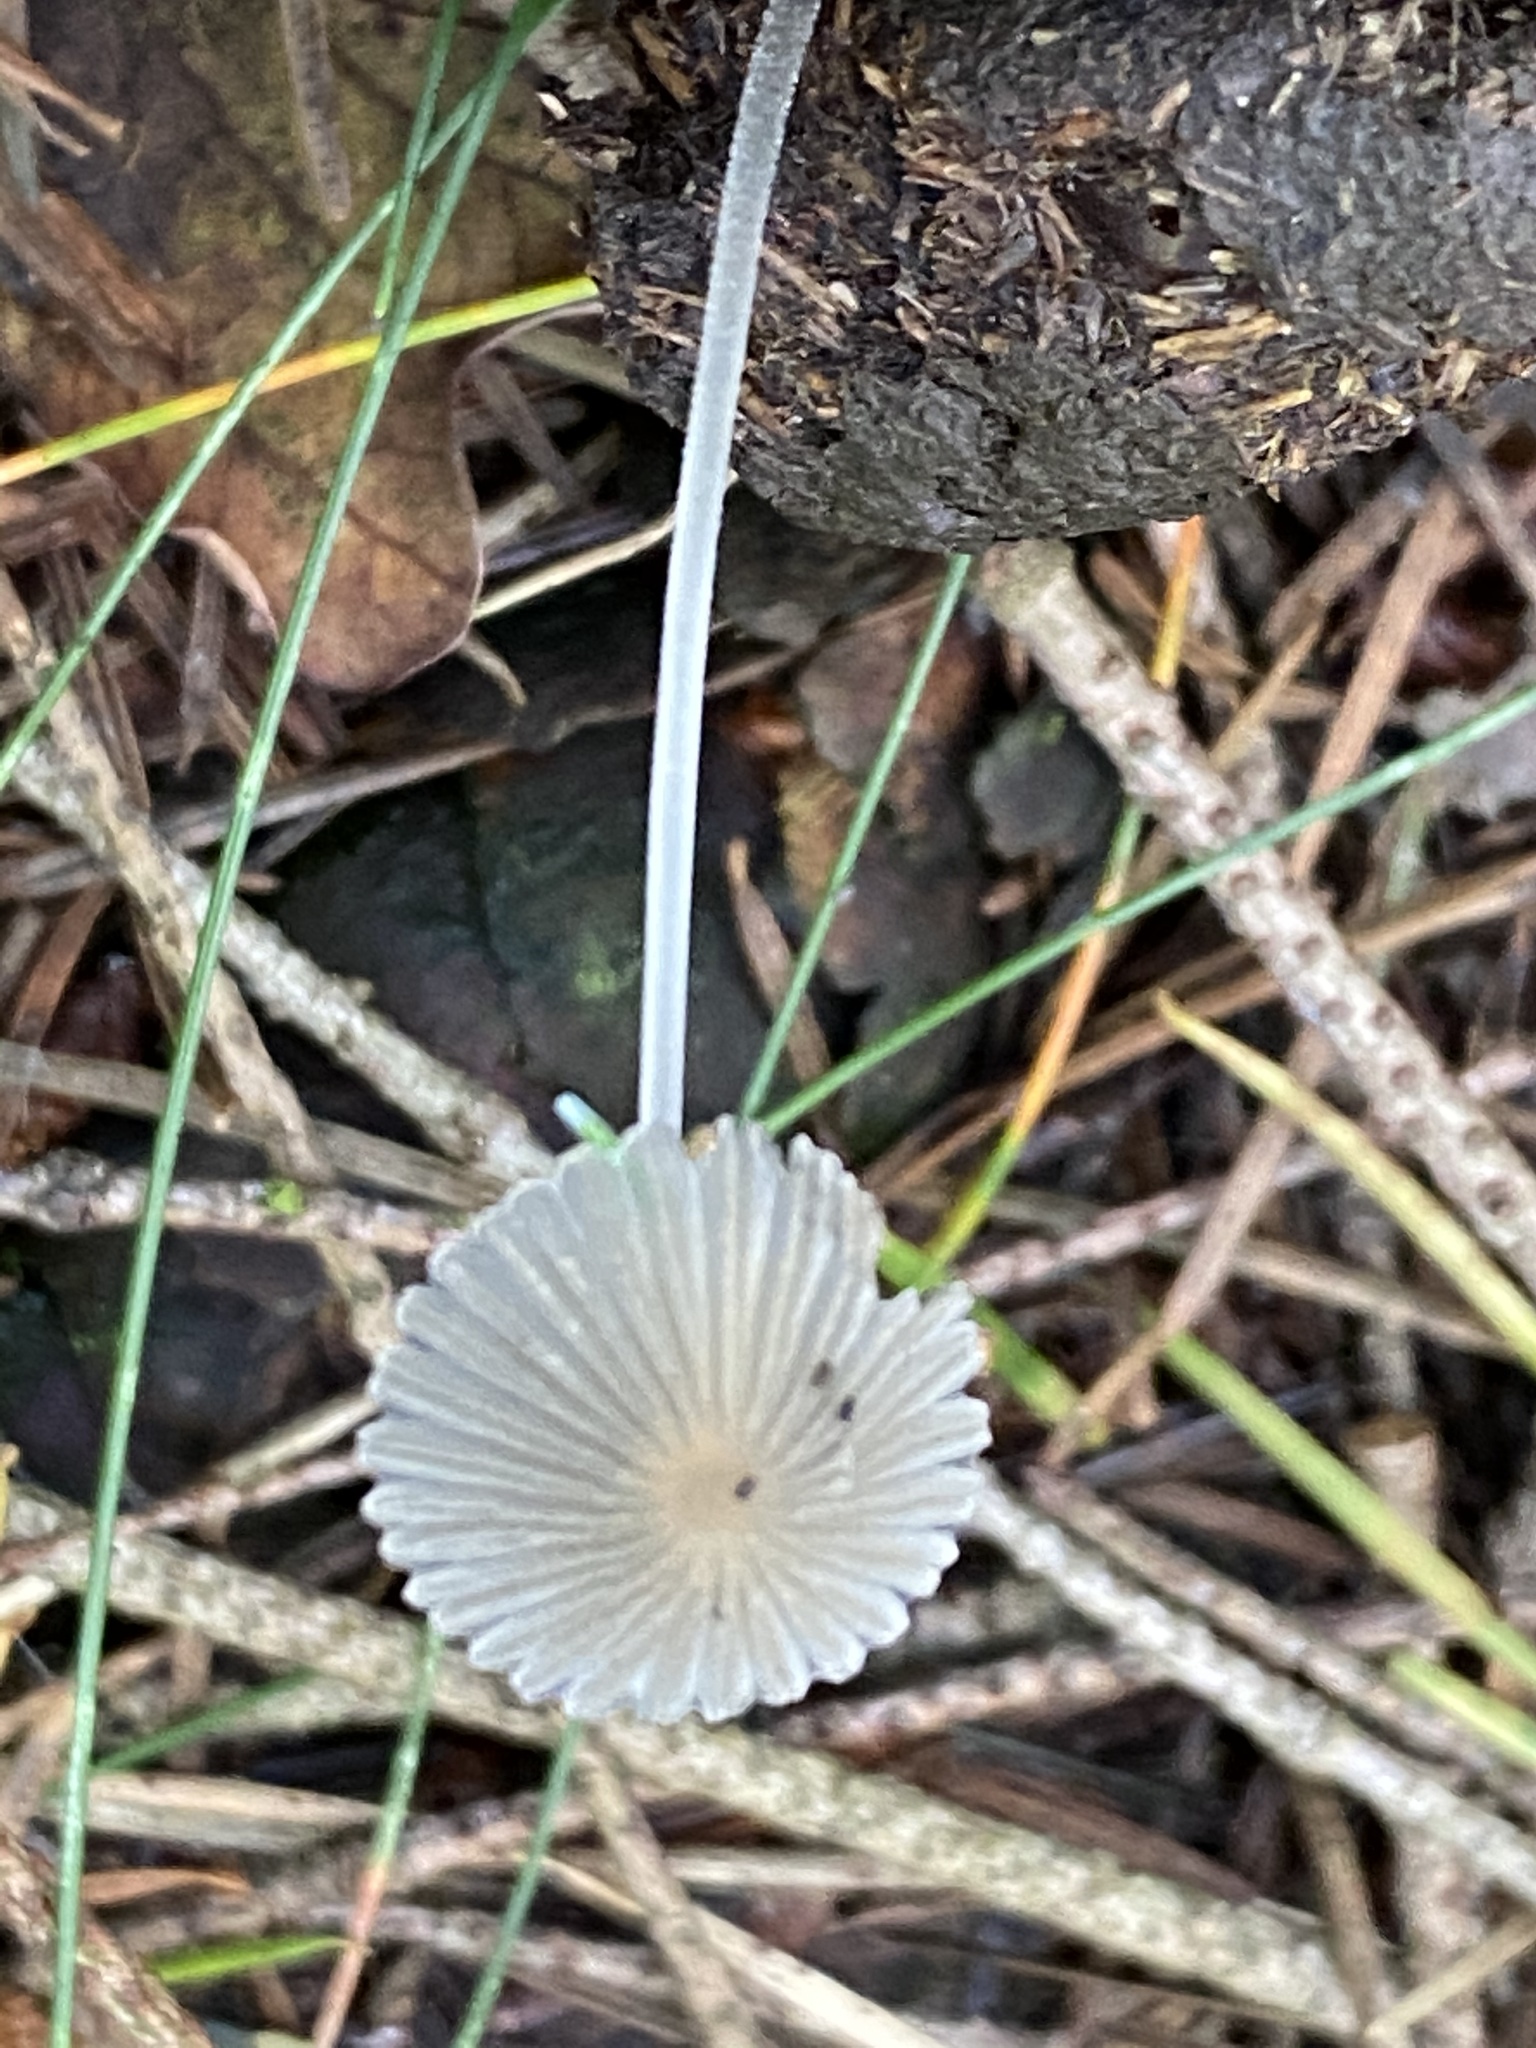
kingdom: Fungi
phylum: Basidiomycota
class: Agaricomycetes
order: Agaricales
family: Psathyrellaceae
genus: Parasola
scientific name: Parasola
